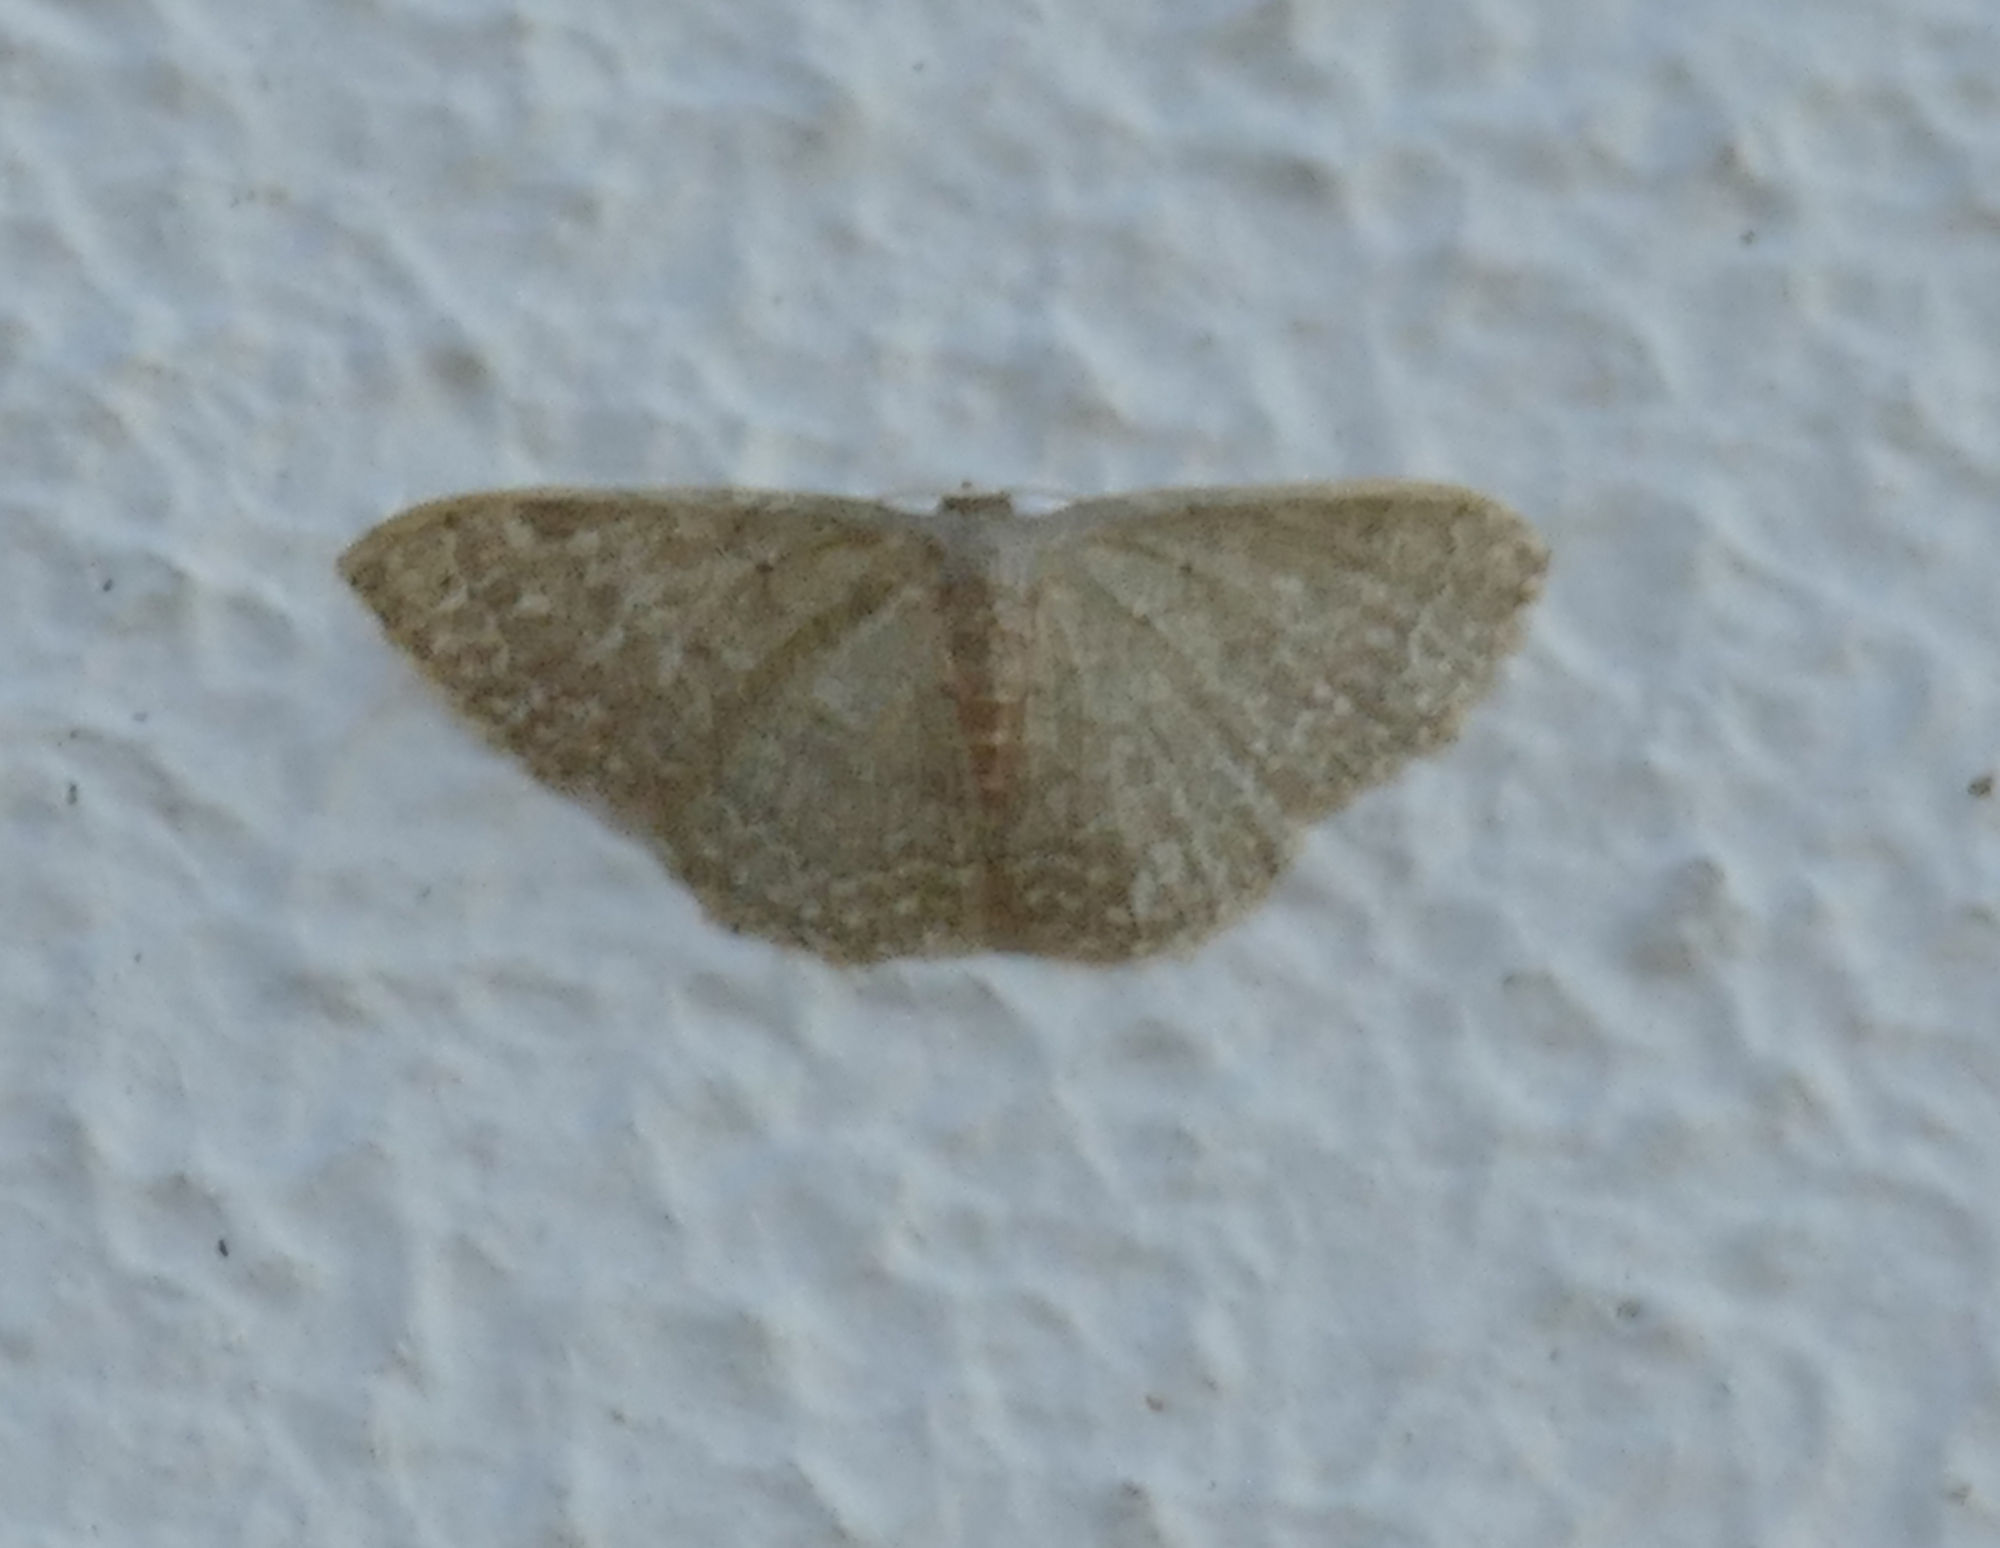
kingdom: Animalia
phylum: Arthropoda
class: Insecta
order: Lepidoptera
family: Geometridae
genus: Pleuroprucha
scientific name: Pleuroprucha insulsaria
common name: Common tan wave
